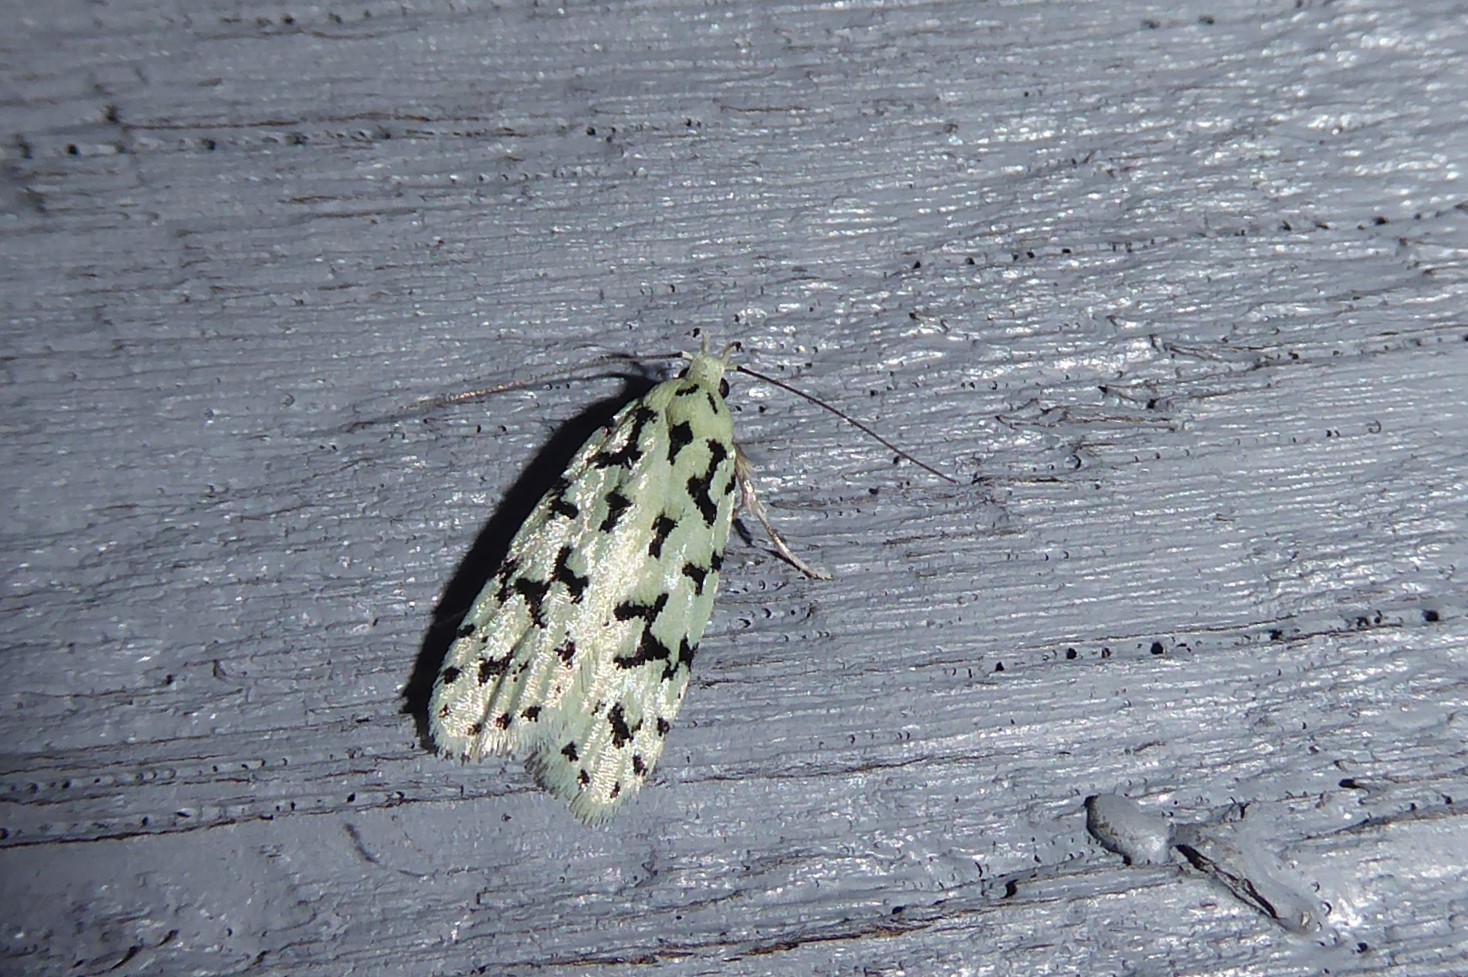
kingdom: Animalia
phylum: Arthropoda
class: Insecta
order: Lepidoptera
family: Oecophoridae
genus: Izatha
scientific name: Izatha huttoni
